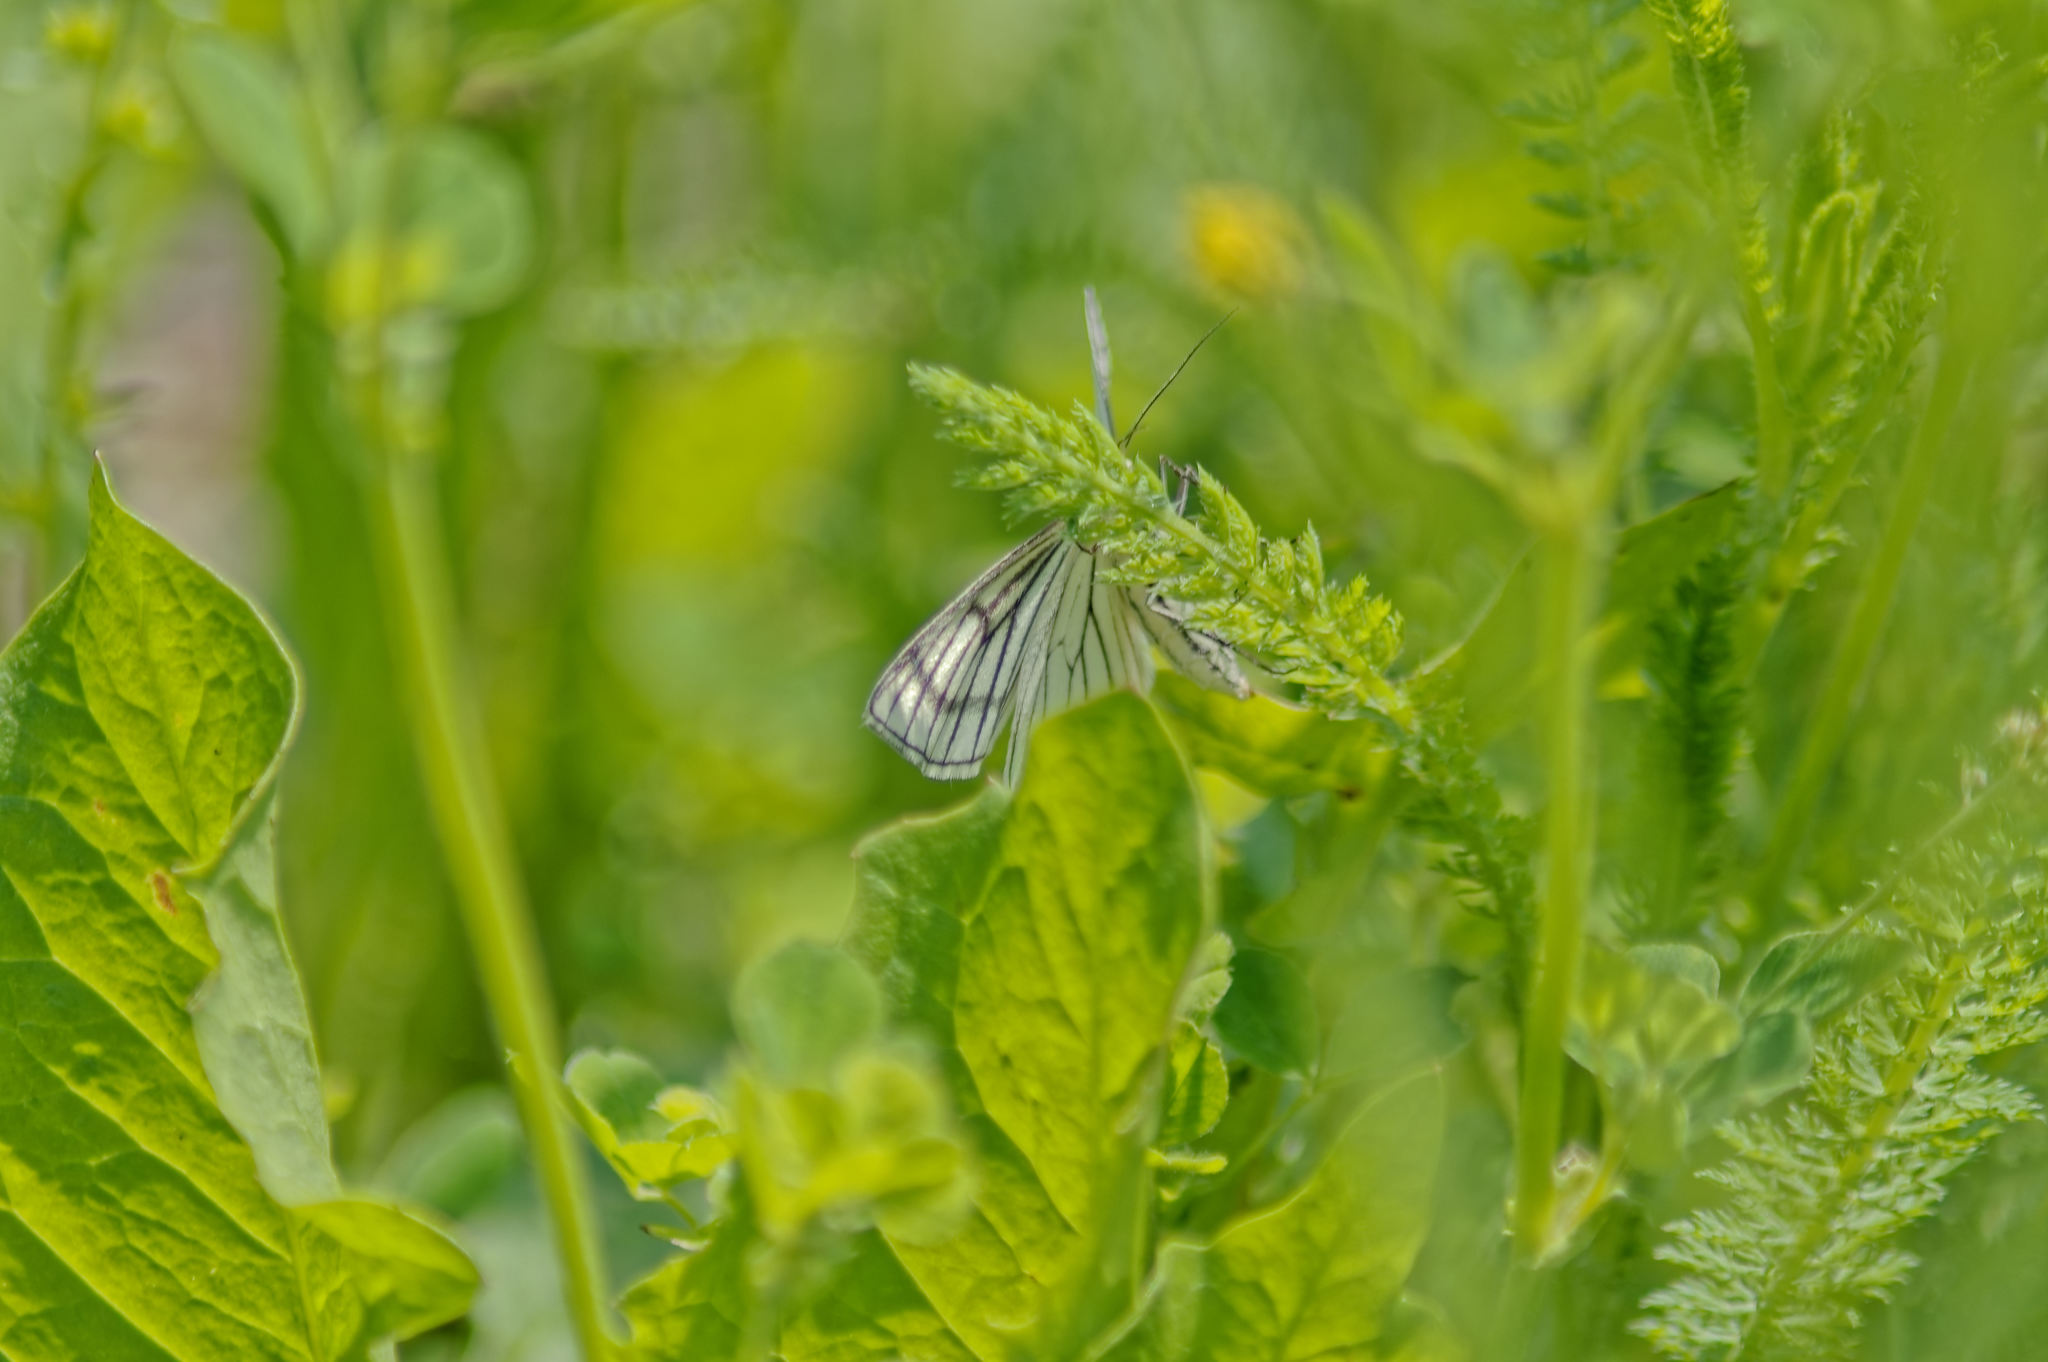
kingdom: Animalia
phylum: Arthropoda
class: Insecta
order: Lepidoptera
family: Geometridae
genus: Siona
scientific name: Siona lineata
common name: Black-veined moth
